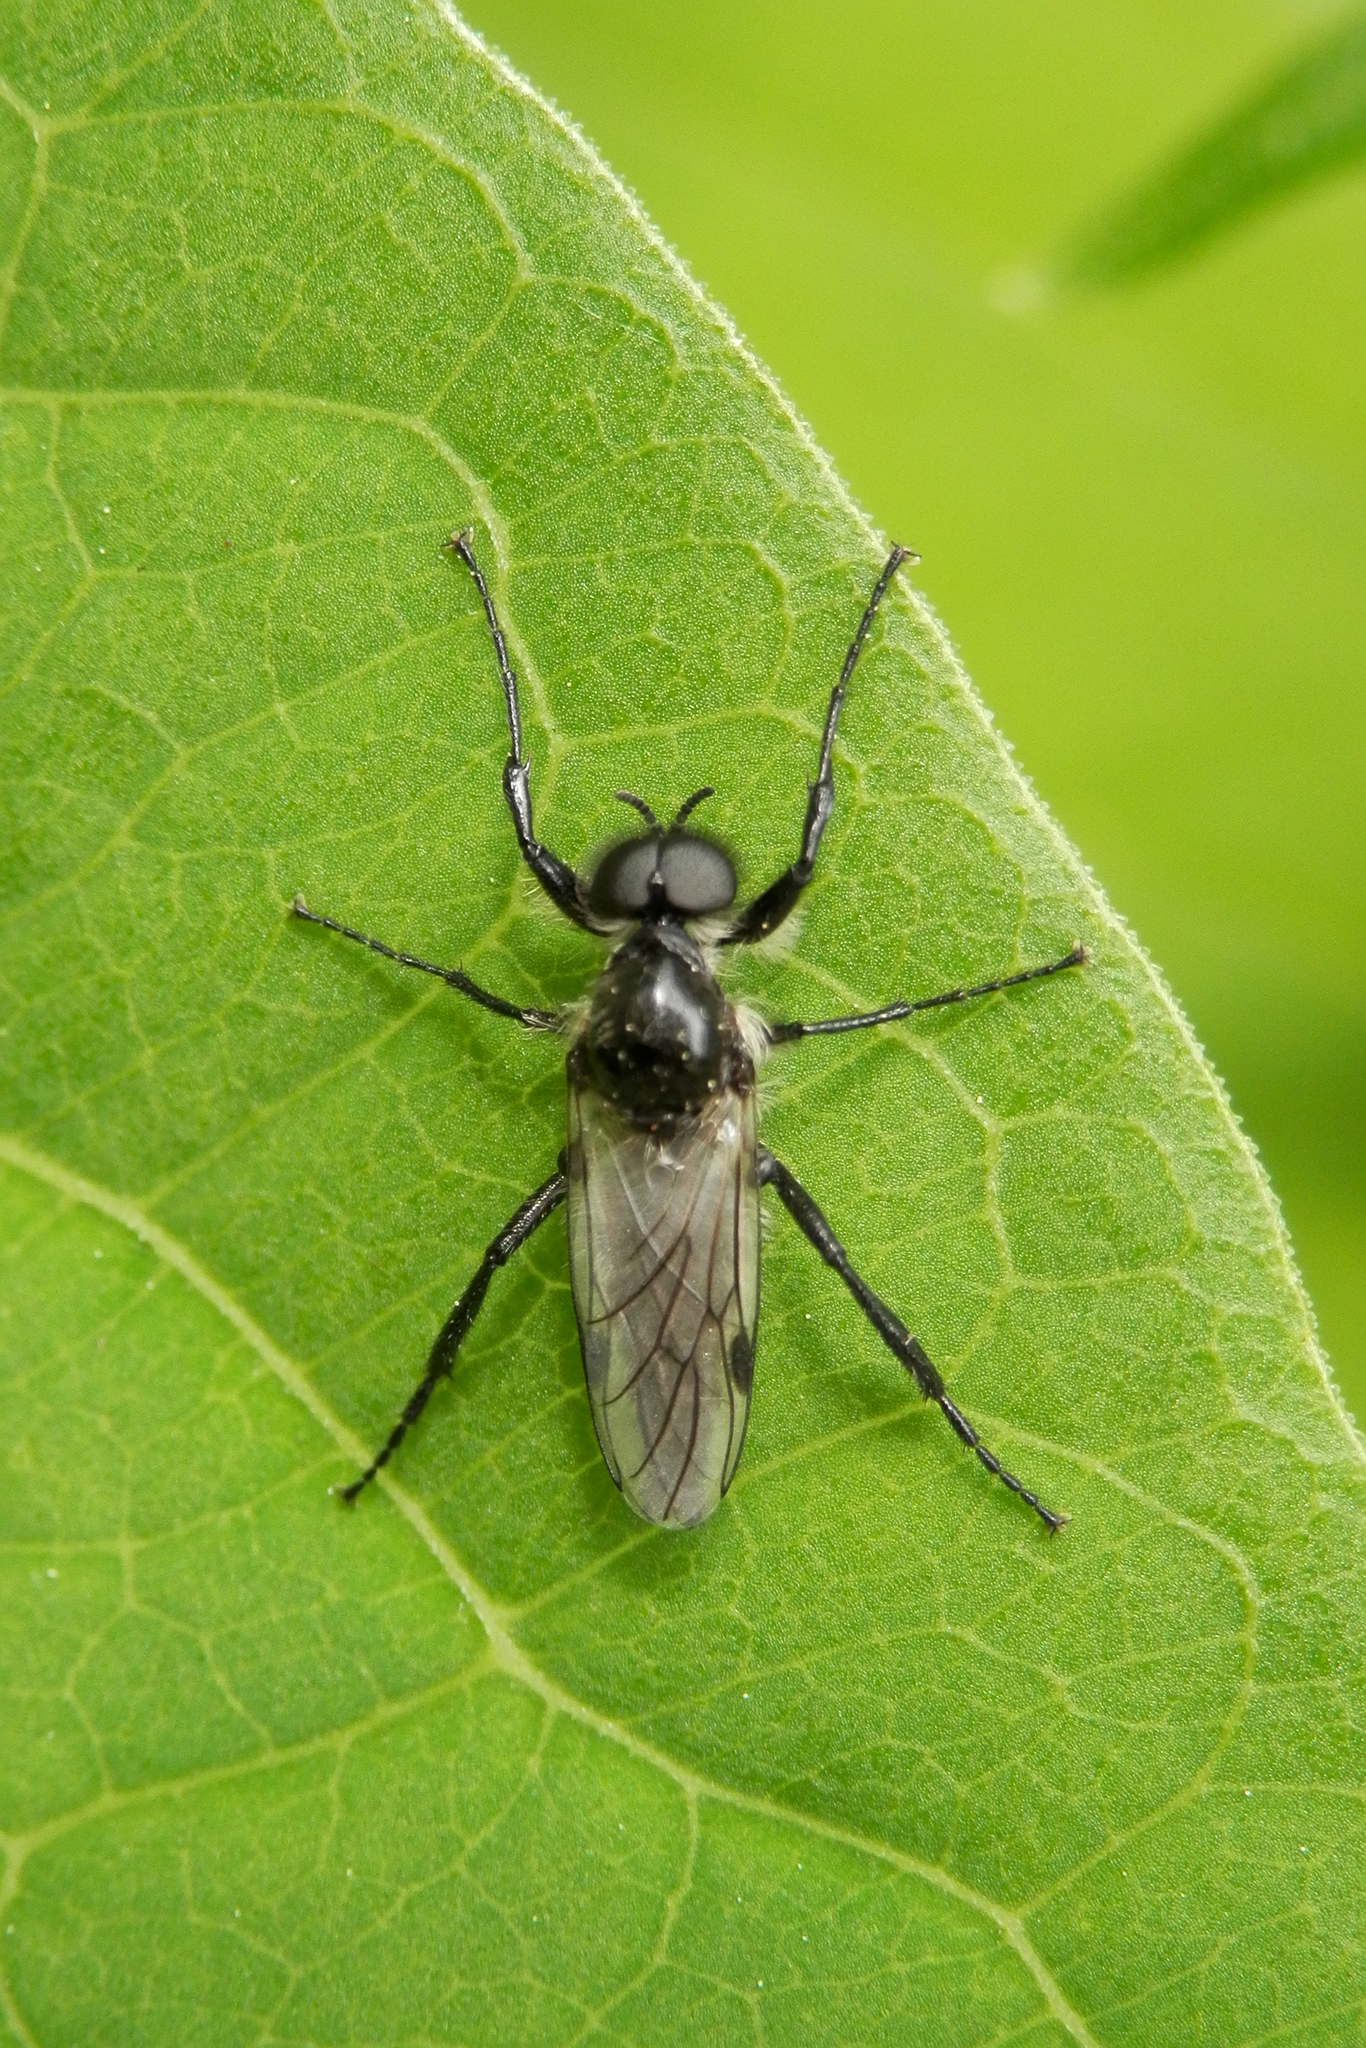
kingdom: Animalia
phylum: Arthropoda
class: Insecta
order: Diptera
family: Bibionidae
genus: Bibio
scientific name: Bibio albipennis
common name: White-winged march fly
